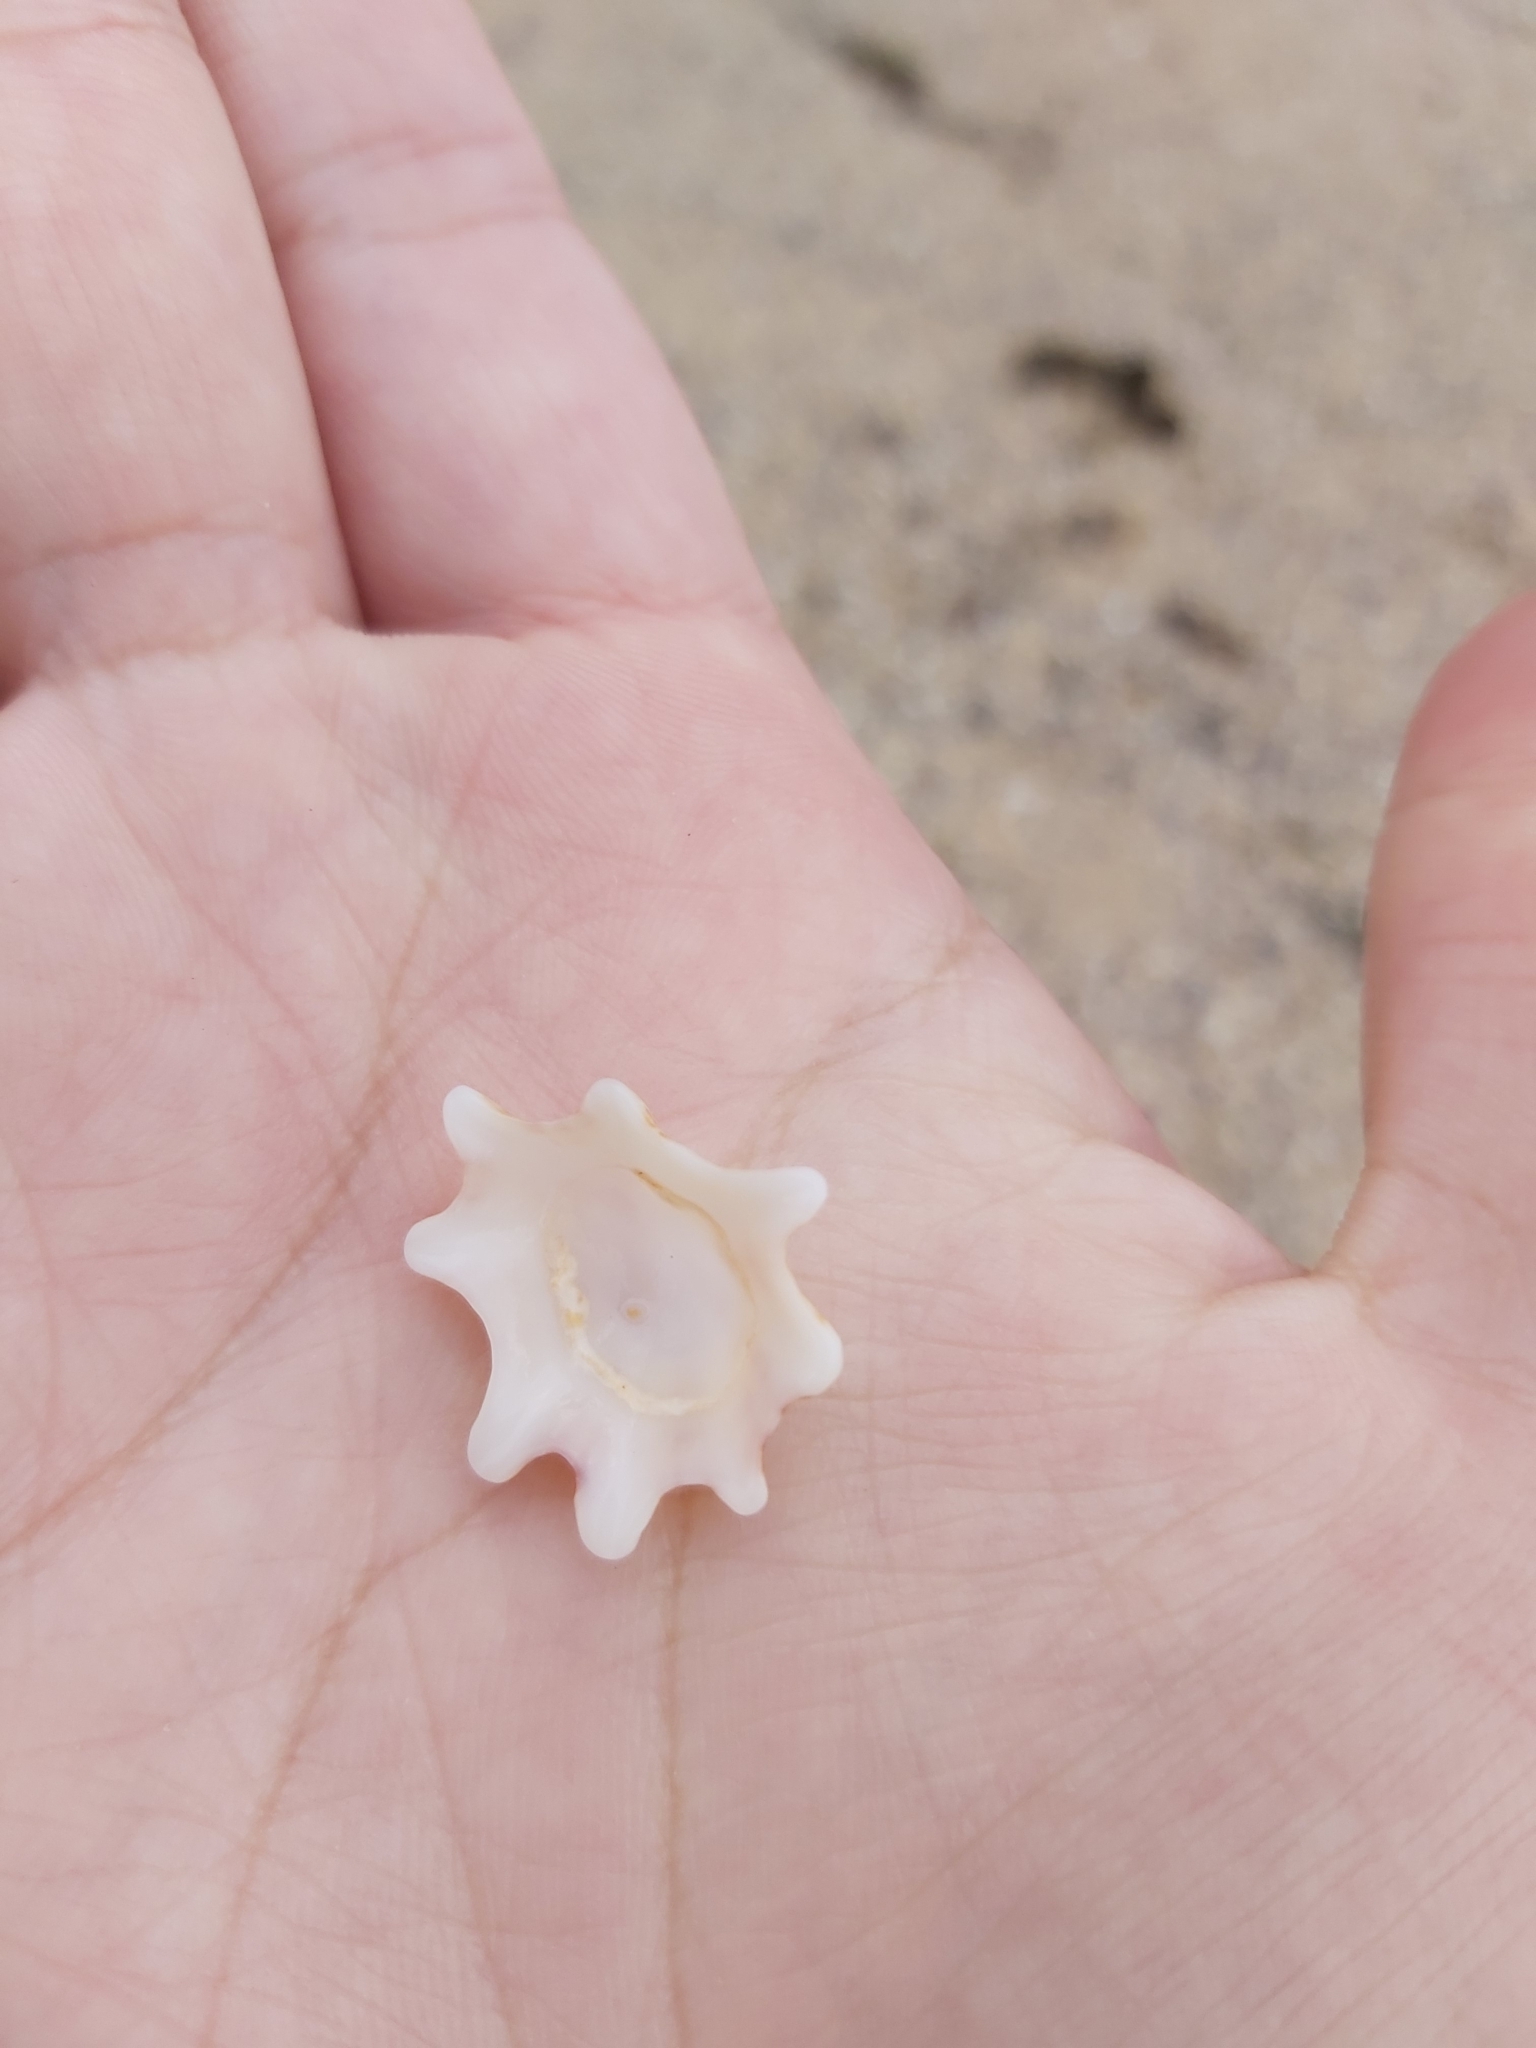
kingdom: Animalia
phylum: Mollusca
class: Gastropoda
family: Patellidae
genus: Scutellastra
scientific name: Scutellastra chapmani
